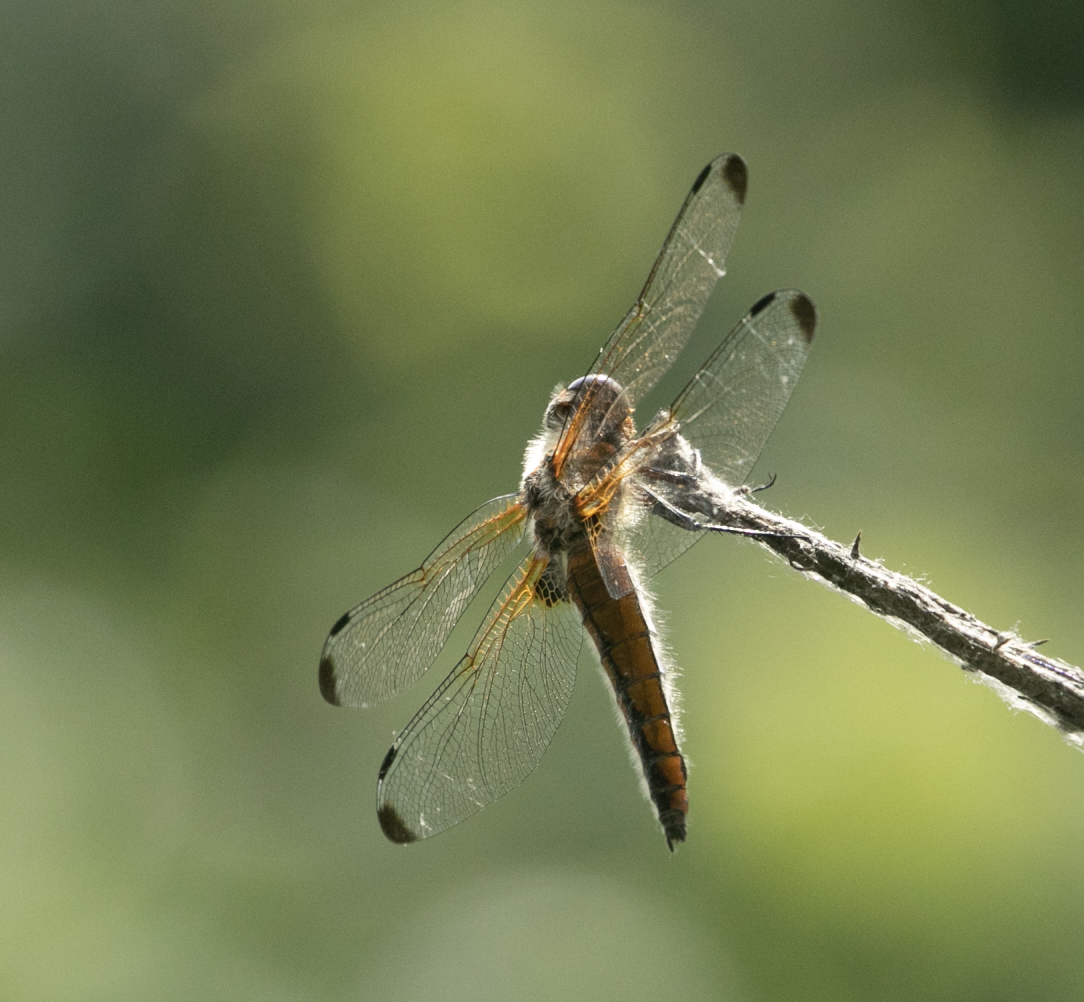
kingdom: Animalia
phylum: Arthropoda
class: Insecta
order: Odonata
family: Libellulidae
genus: Libellula
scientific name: Libellula fulva
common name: Blue chaser
